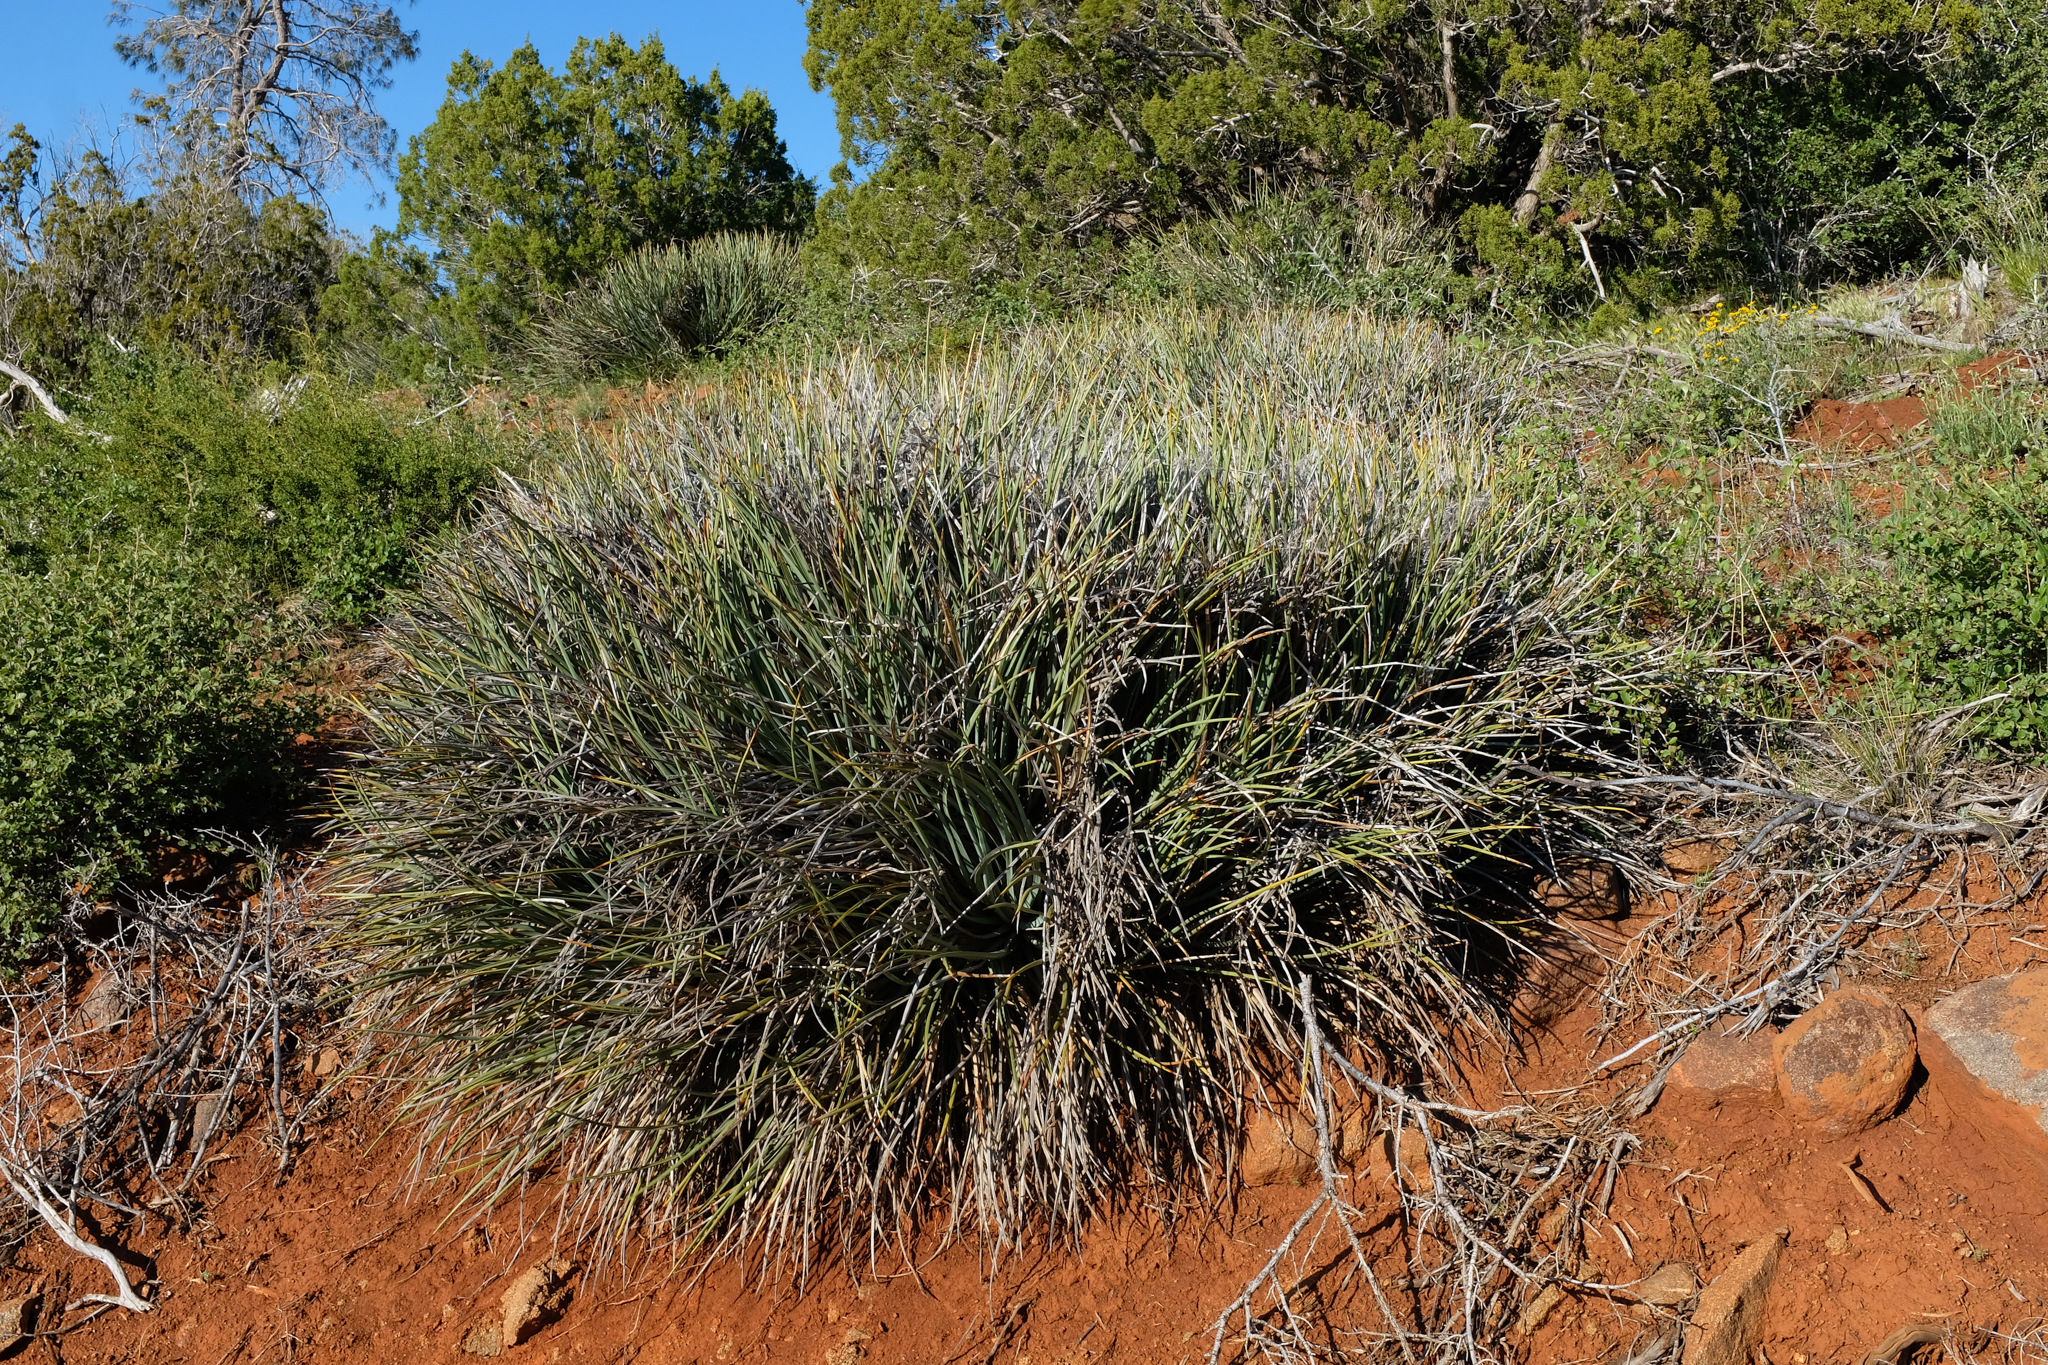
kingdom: Plantae
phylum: Tracheophyta
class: Liliopsida
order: Asparagales
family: Asparagaceae
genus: Hesperoyucca
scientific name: Hesperoyucca whipplei
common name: Our lord's-candle
